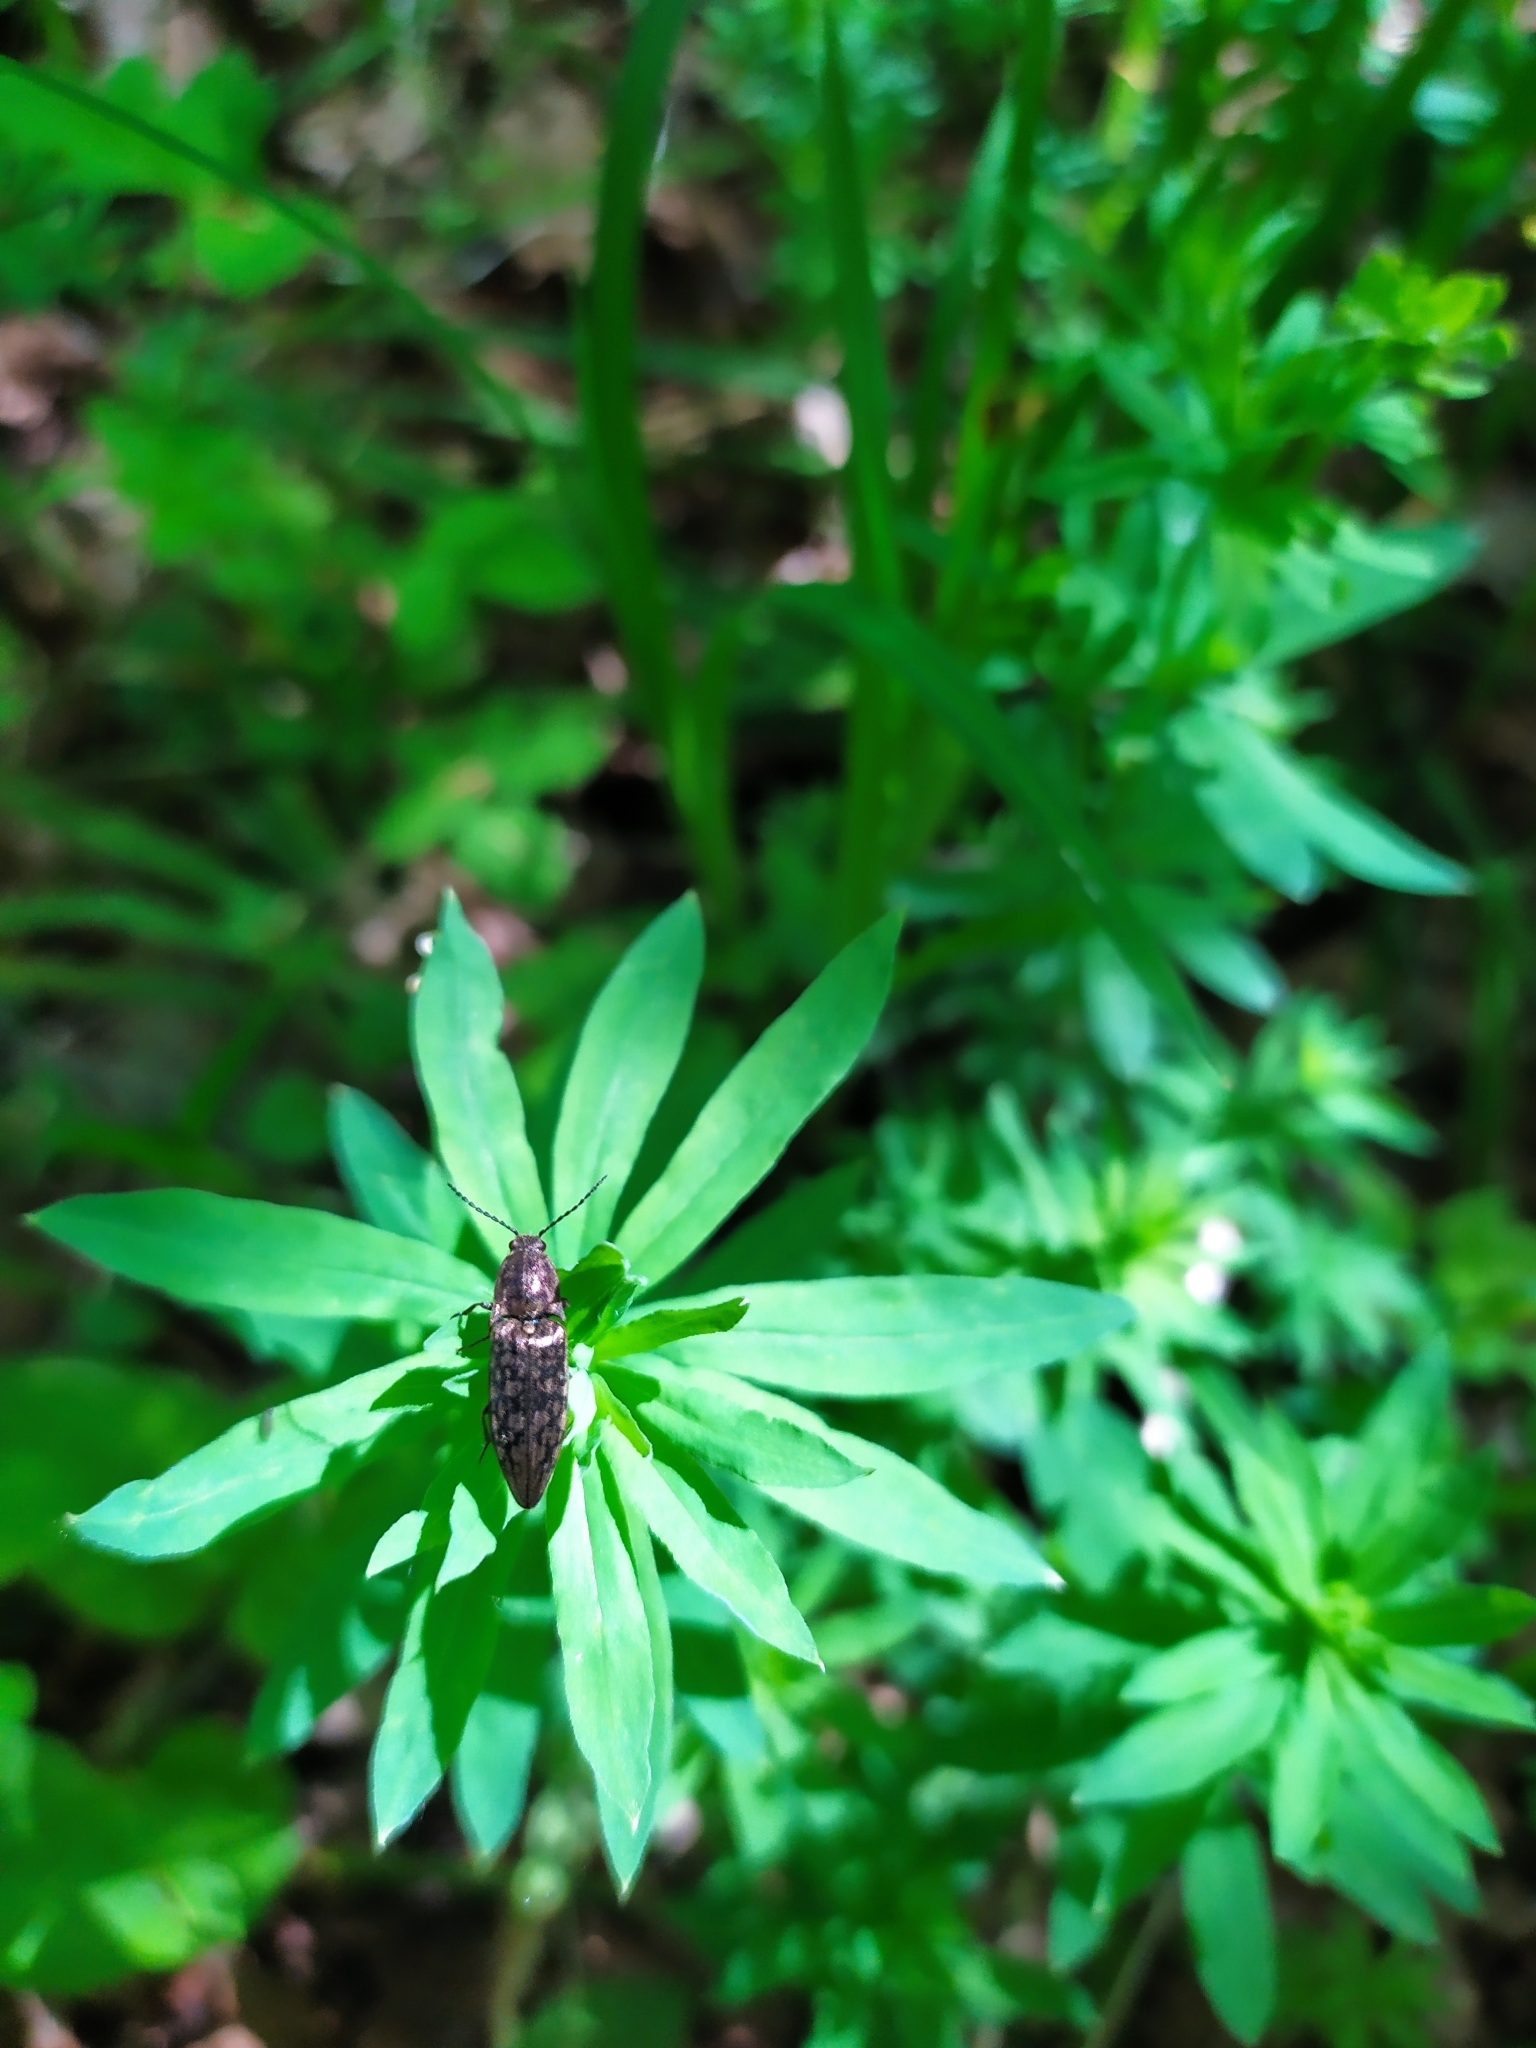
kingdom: Animalia
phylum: Arthropoda
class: Insecta
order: Coleoptera
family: Elateridae
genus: Actenicerus
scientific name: Actenicerus sjaelandicus
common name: Marsh click beetle
